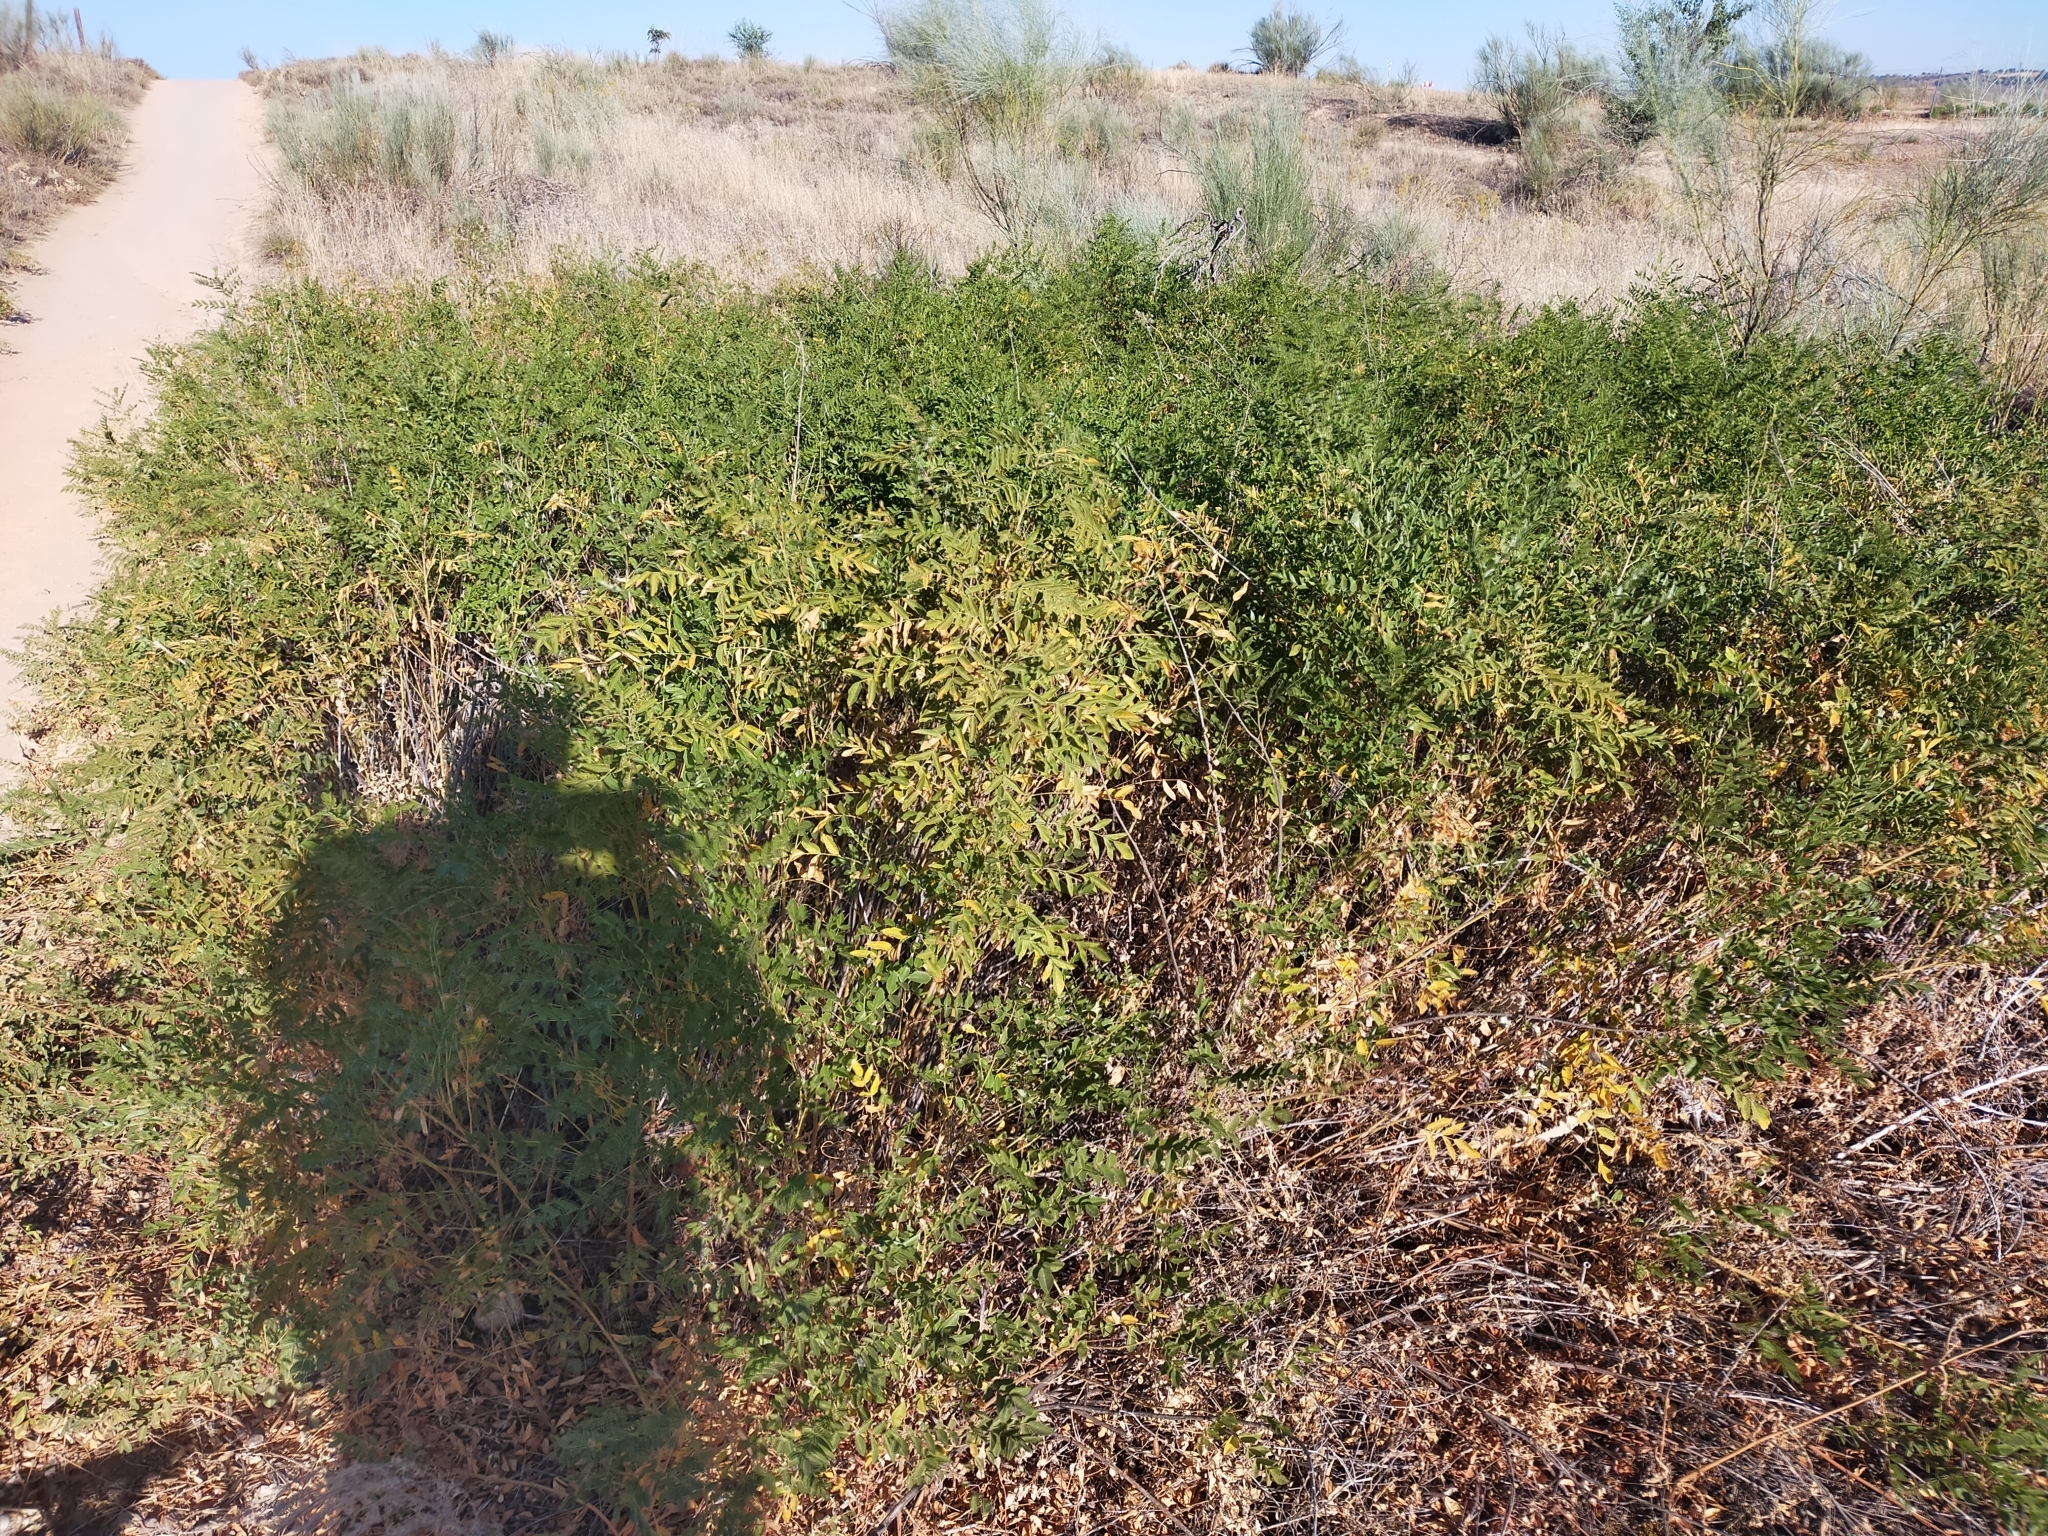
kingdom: Plantae
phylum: Tracheophyta
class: Magnoliopsida
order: Fabales
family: Fabaceae
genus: Glycyrrhiza
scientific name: Glycyrrhiza glabra
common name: Liquorice
